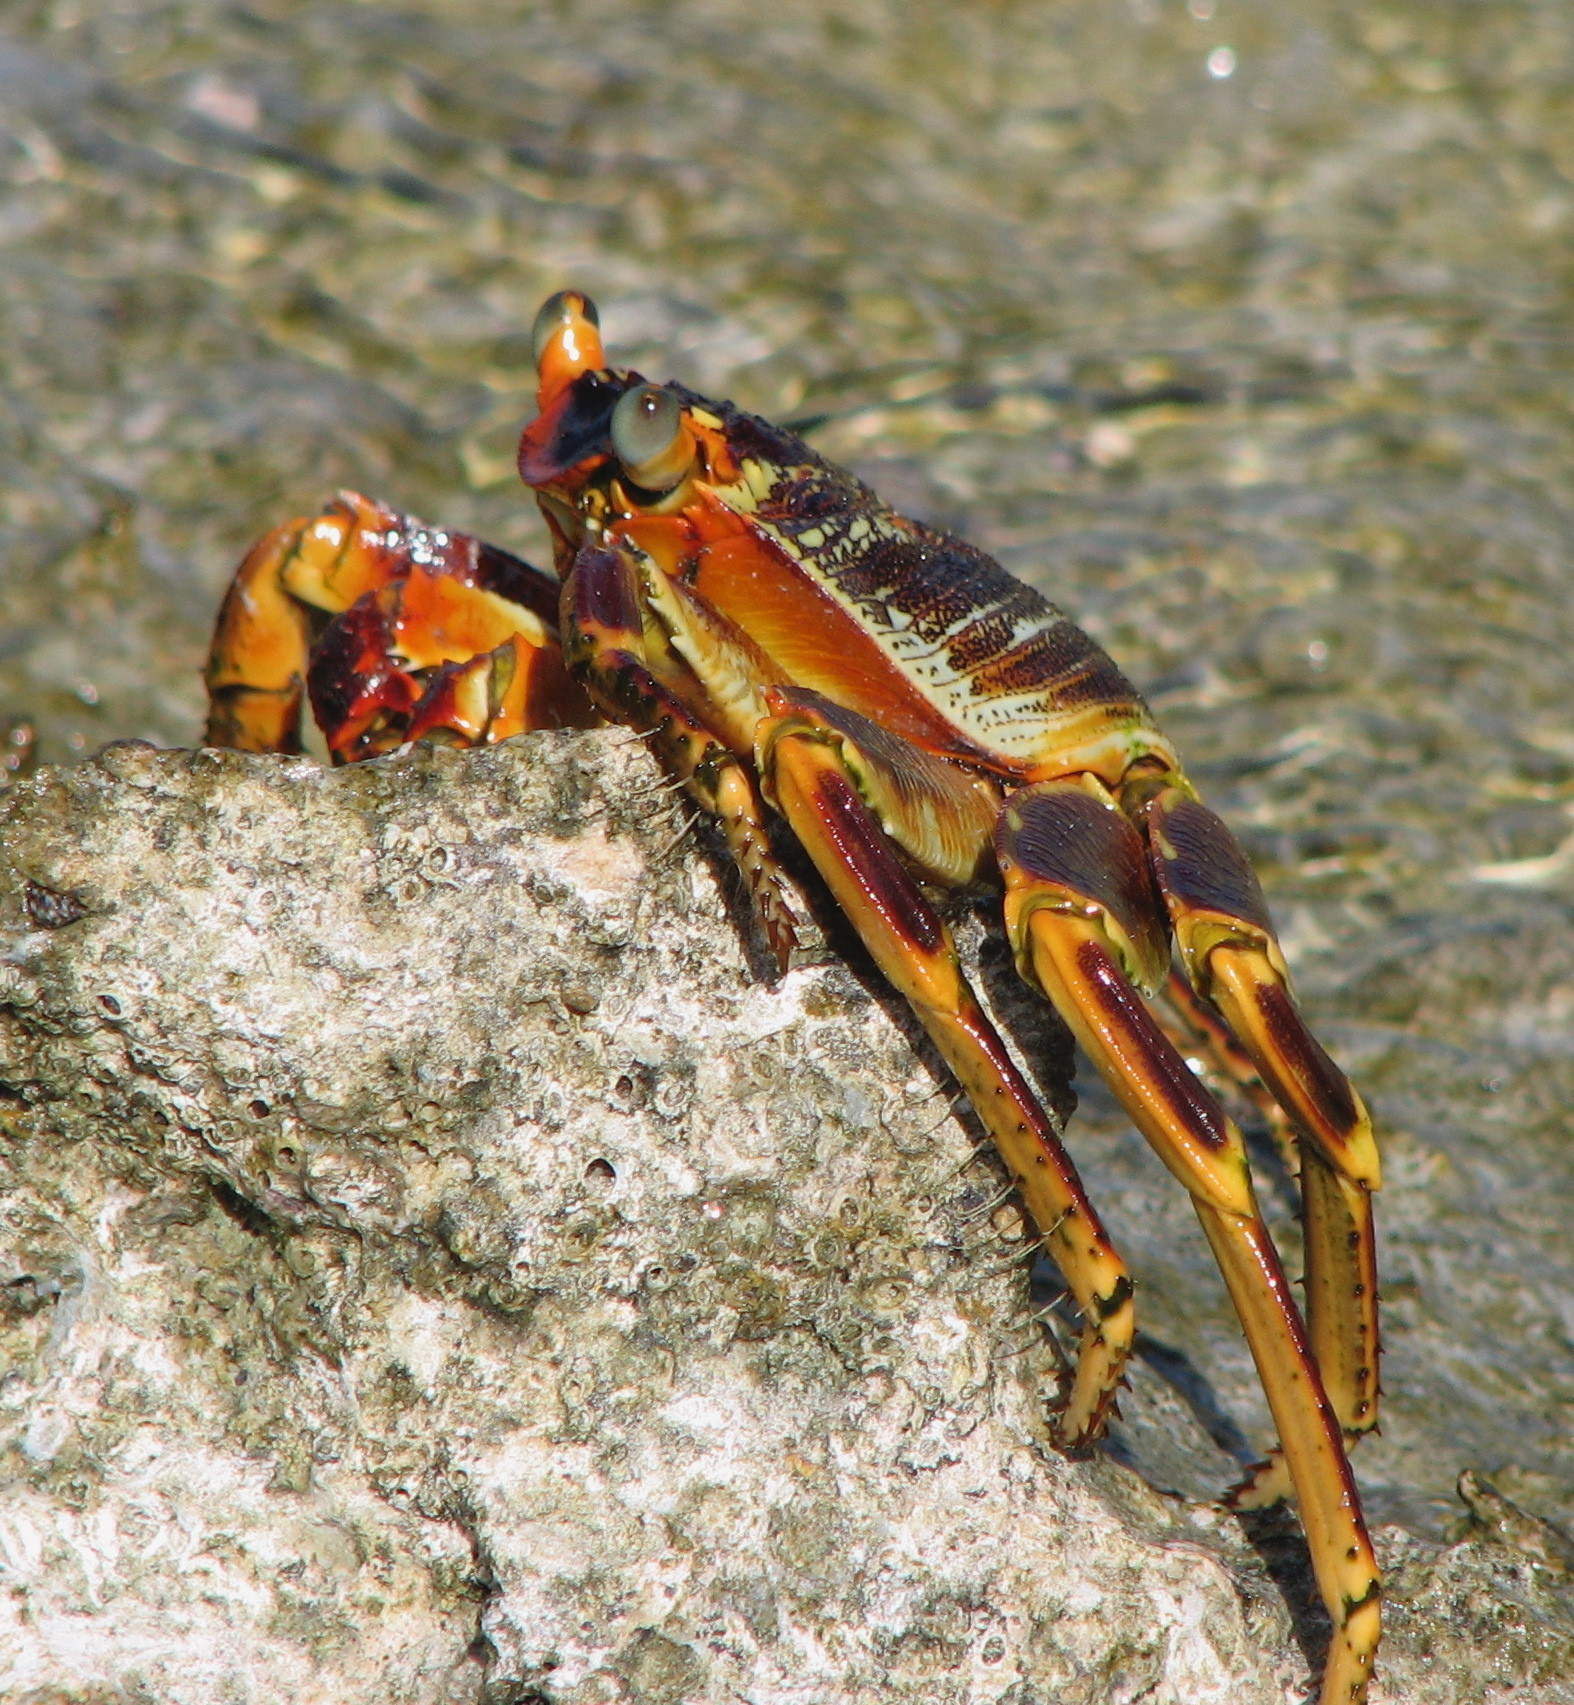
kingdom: Animalia
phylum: Arthropoda
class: Malacostraca
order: Decapoda
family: Grapsidae
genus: Grapsus
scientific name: Grapsus tenuicrustatus
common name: Natal lightfoot crab
